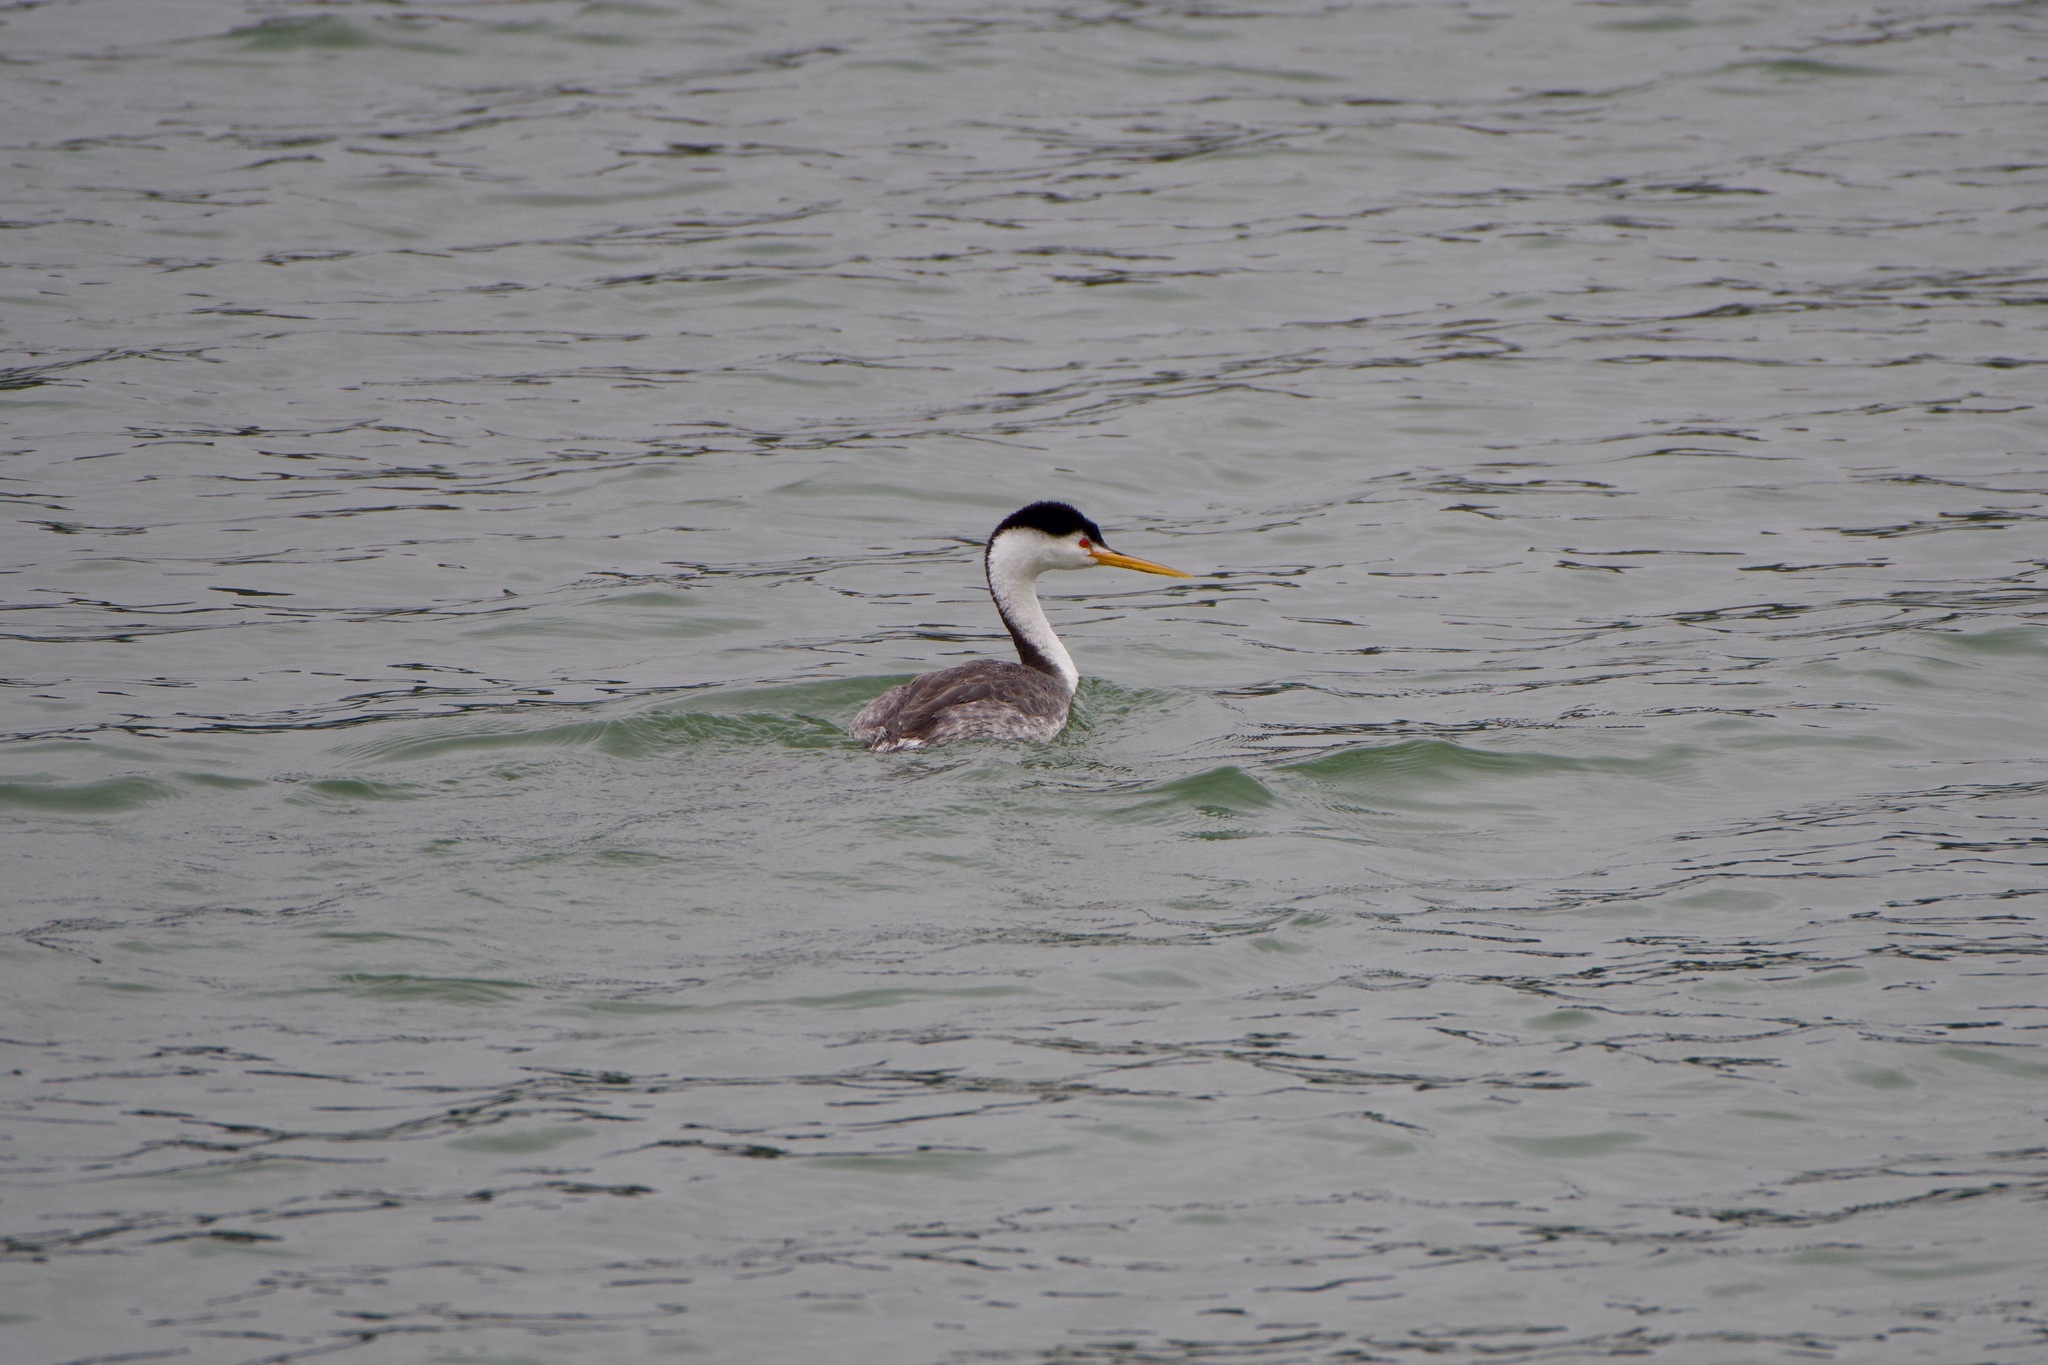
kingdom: Animalia
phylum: Chordata
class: Aves
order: Podicipediformes
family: Podicipedidae
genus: Aechmophorus
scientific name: Aechmophorus clarkii
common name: Clark's grebe
